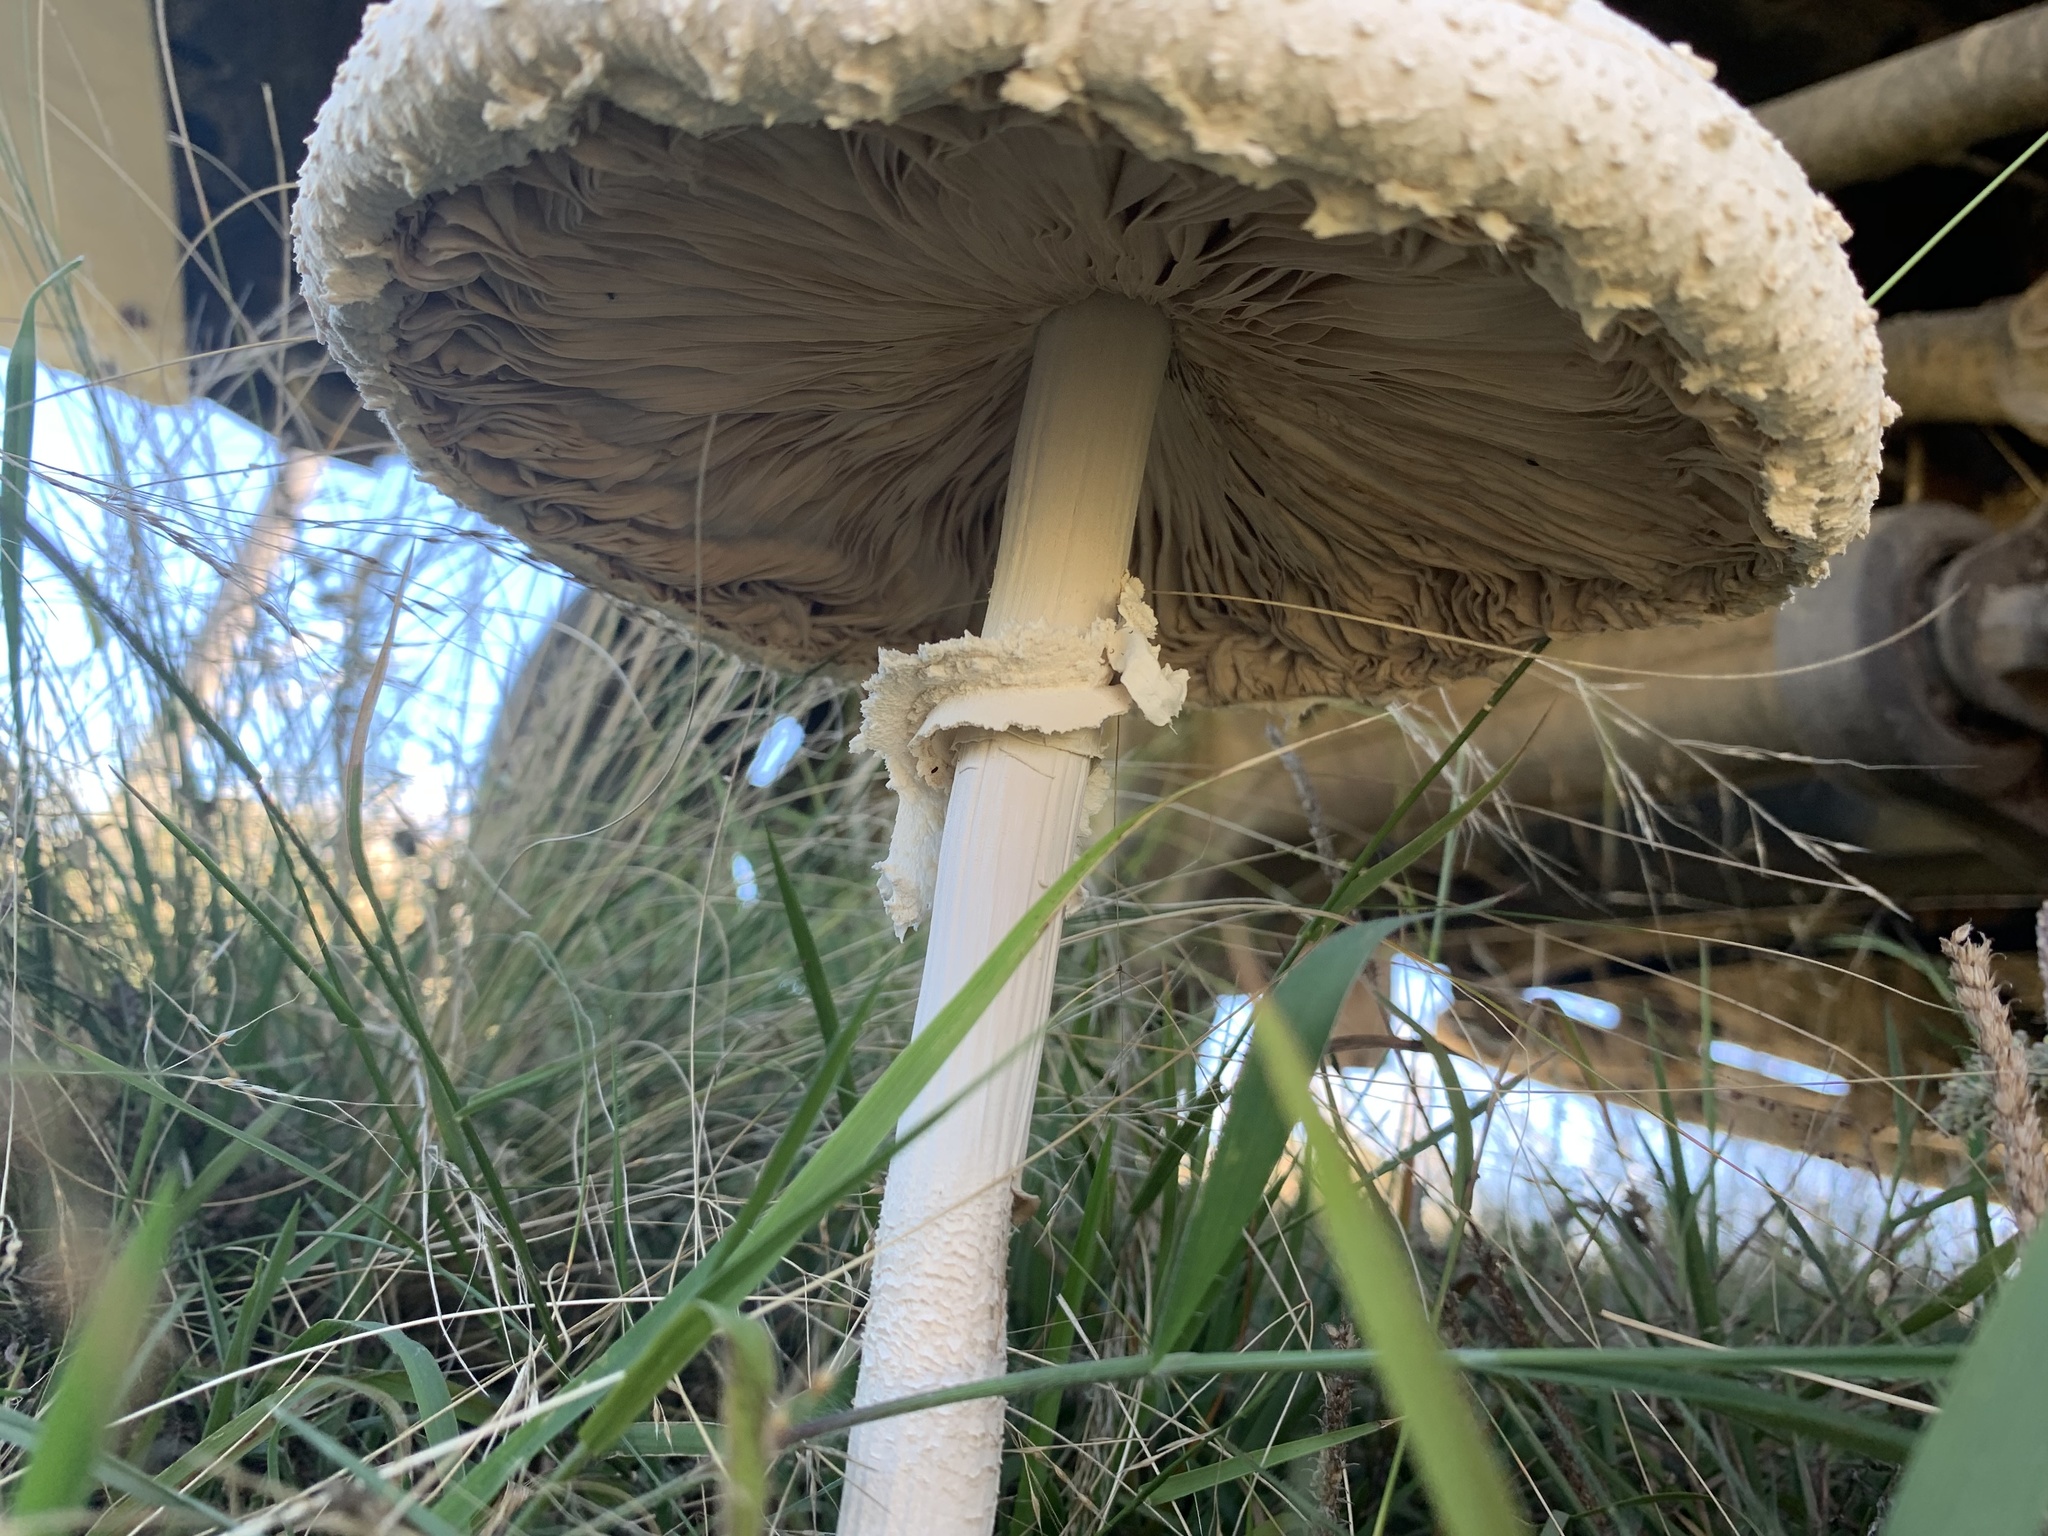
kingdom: Fungi
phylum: Basidiomycota
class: Agaricomycetes
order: Agaricales
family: Agaricaceae
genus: Macrolepiota
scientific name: Macrolepiota dolichaula
